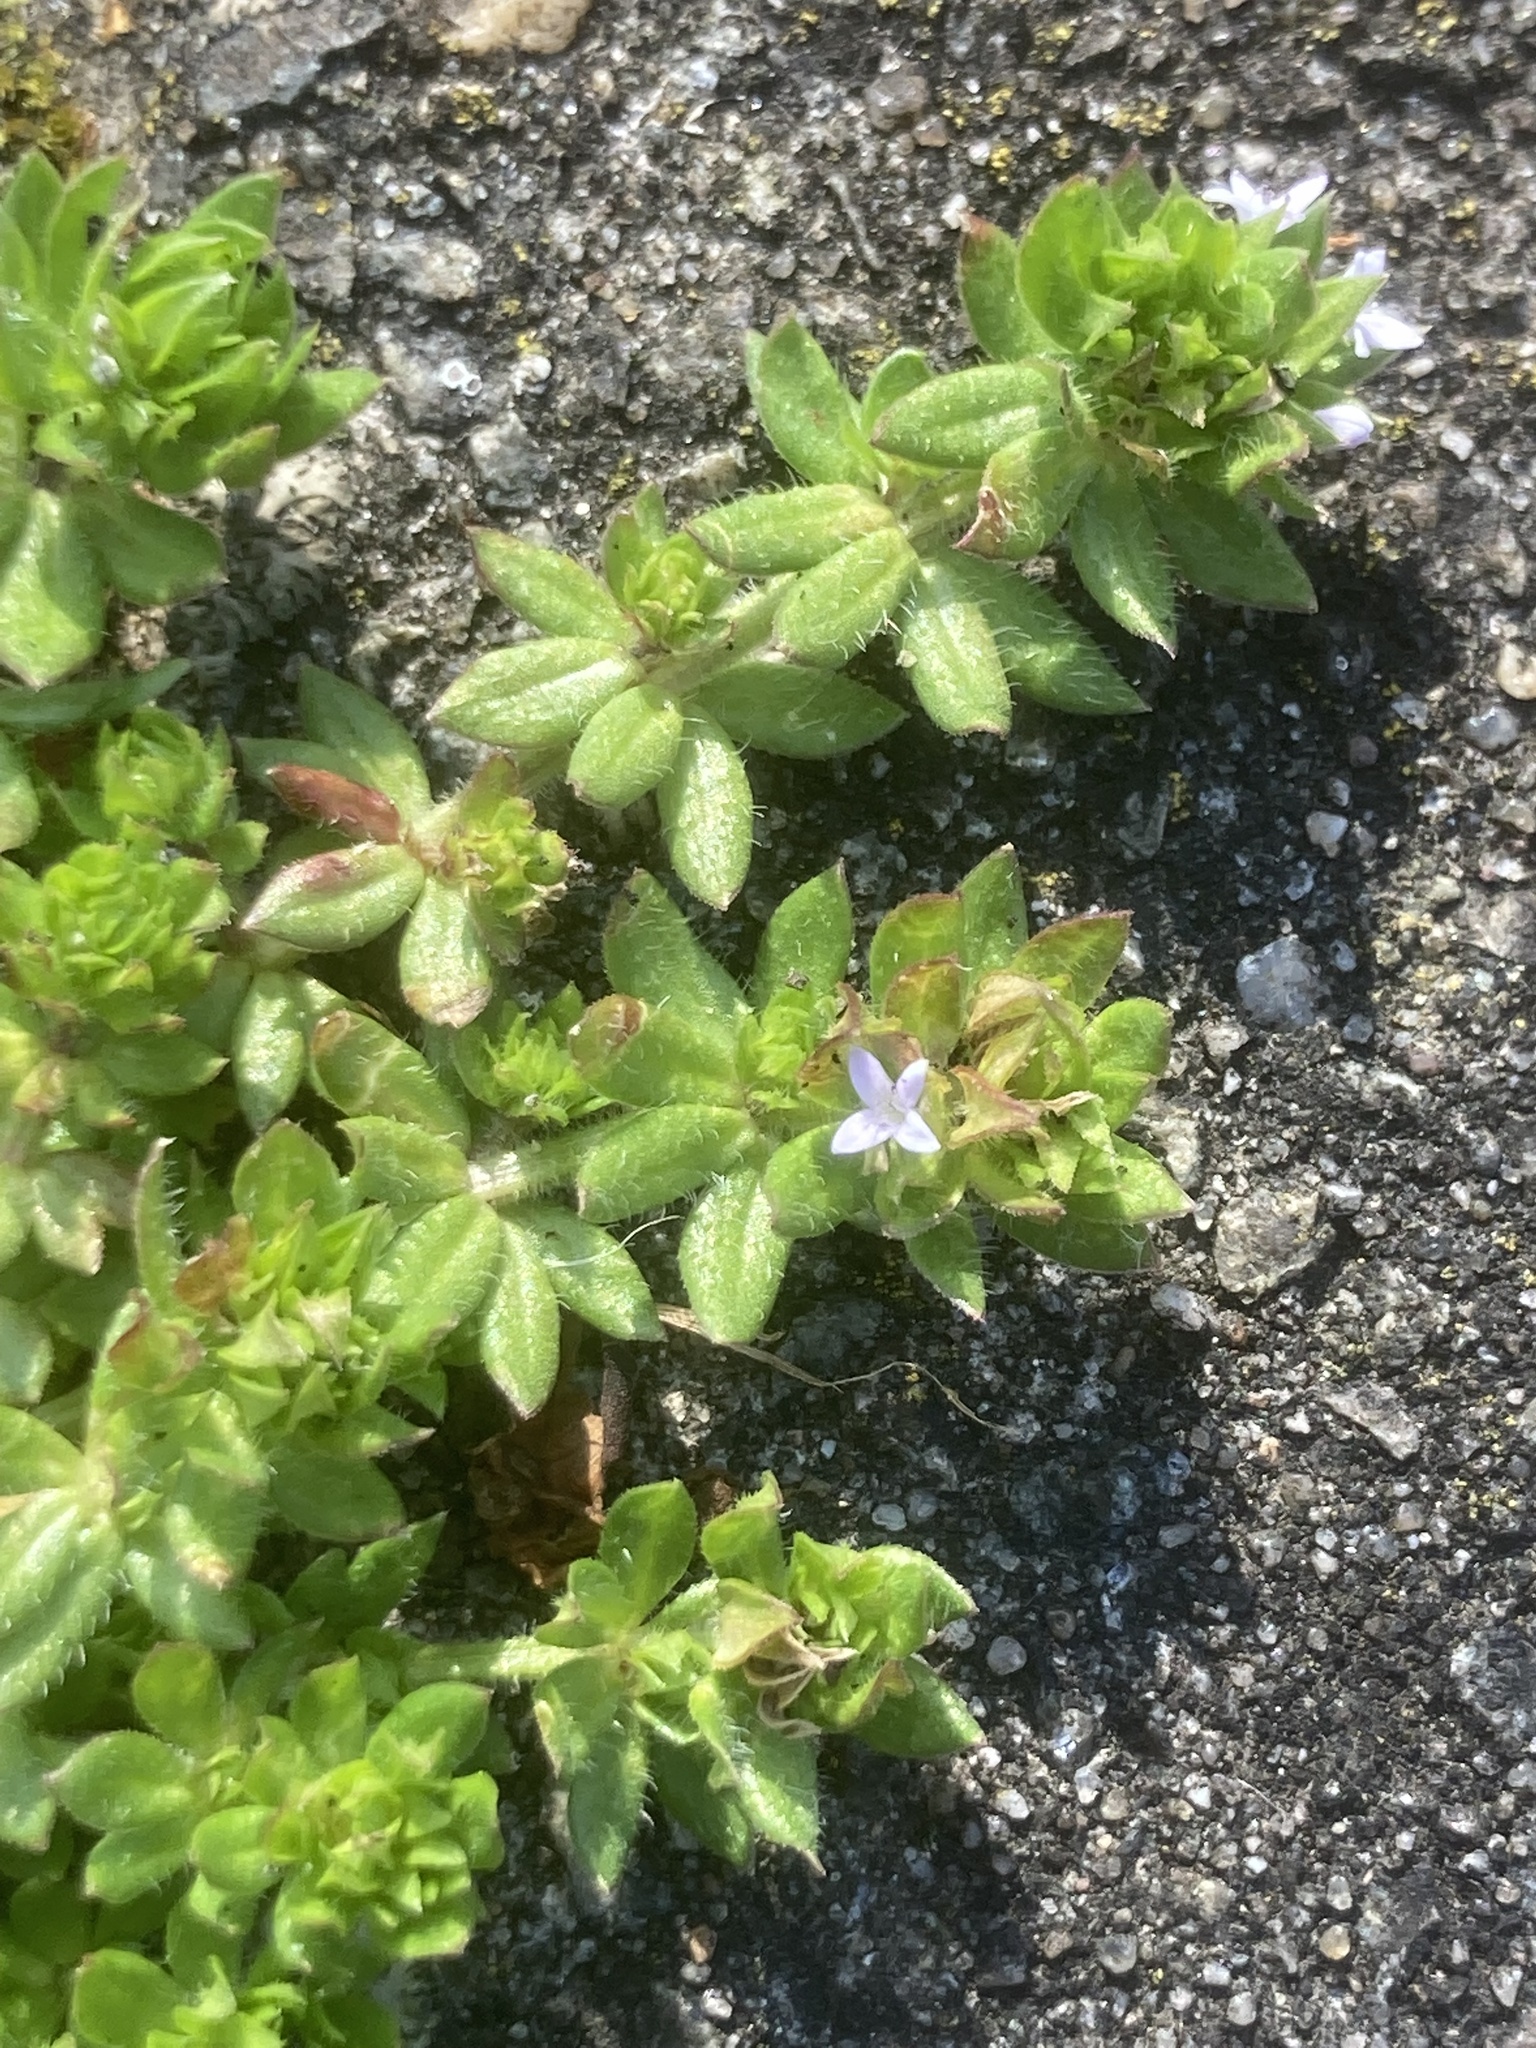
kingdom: Plantae
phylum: Tracheophyta
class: Magnoliopsida
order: Gentianales
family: Rubiaceae
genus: Sherardia
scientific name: Sherardia arvensis
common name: Field madder
